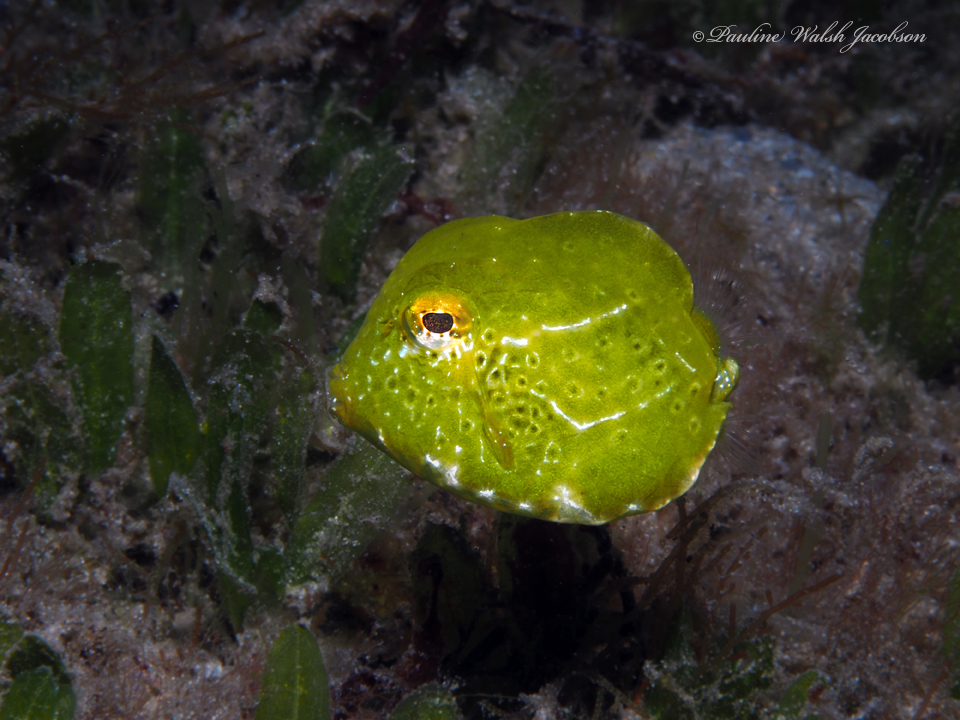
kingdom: Animalia
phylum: Chordata
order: Tetraodontiformes
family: Ostraciidae
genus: Lactophrys
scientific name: Lactophrys trigonus
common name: Buffalo trunkfish
